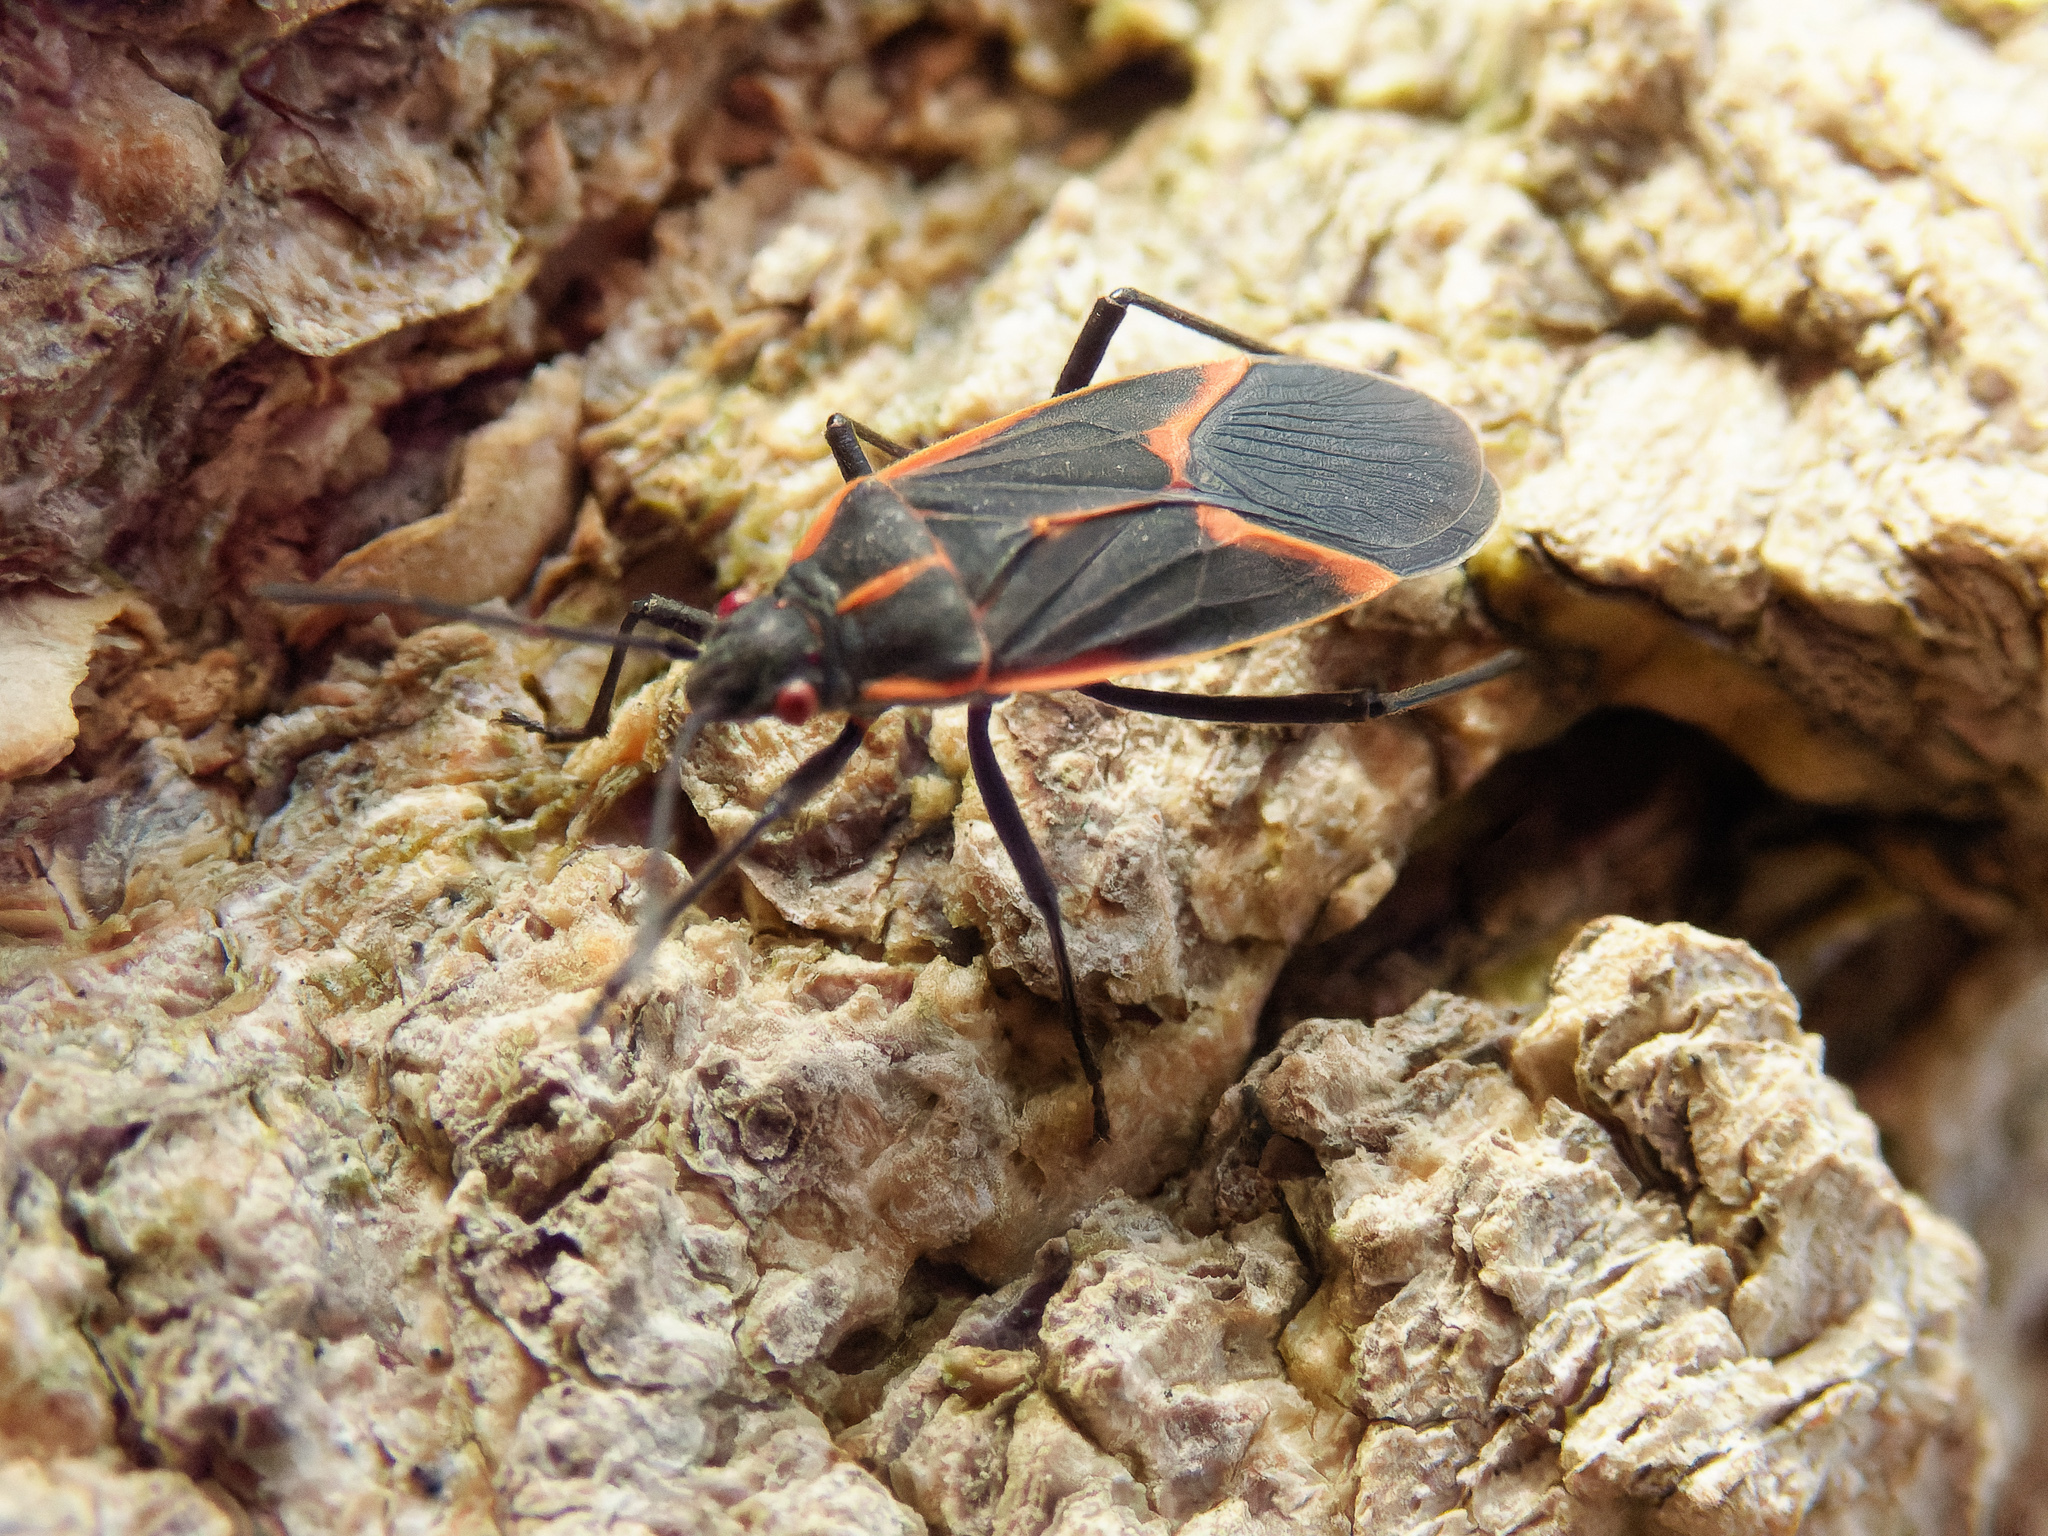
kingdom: Animalia
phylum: Arthropoda
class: Insecta
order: Hemiptera
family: Rhopalidae
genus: Boisea
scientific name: Boisea trivittata
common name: Boxelder bug
